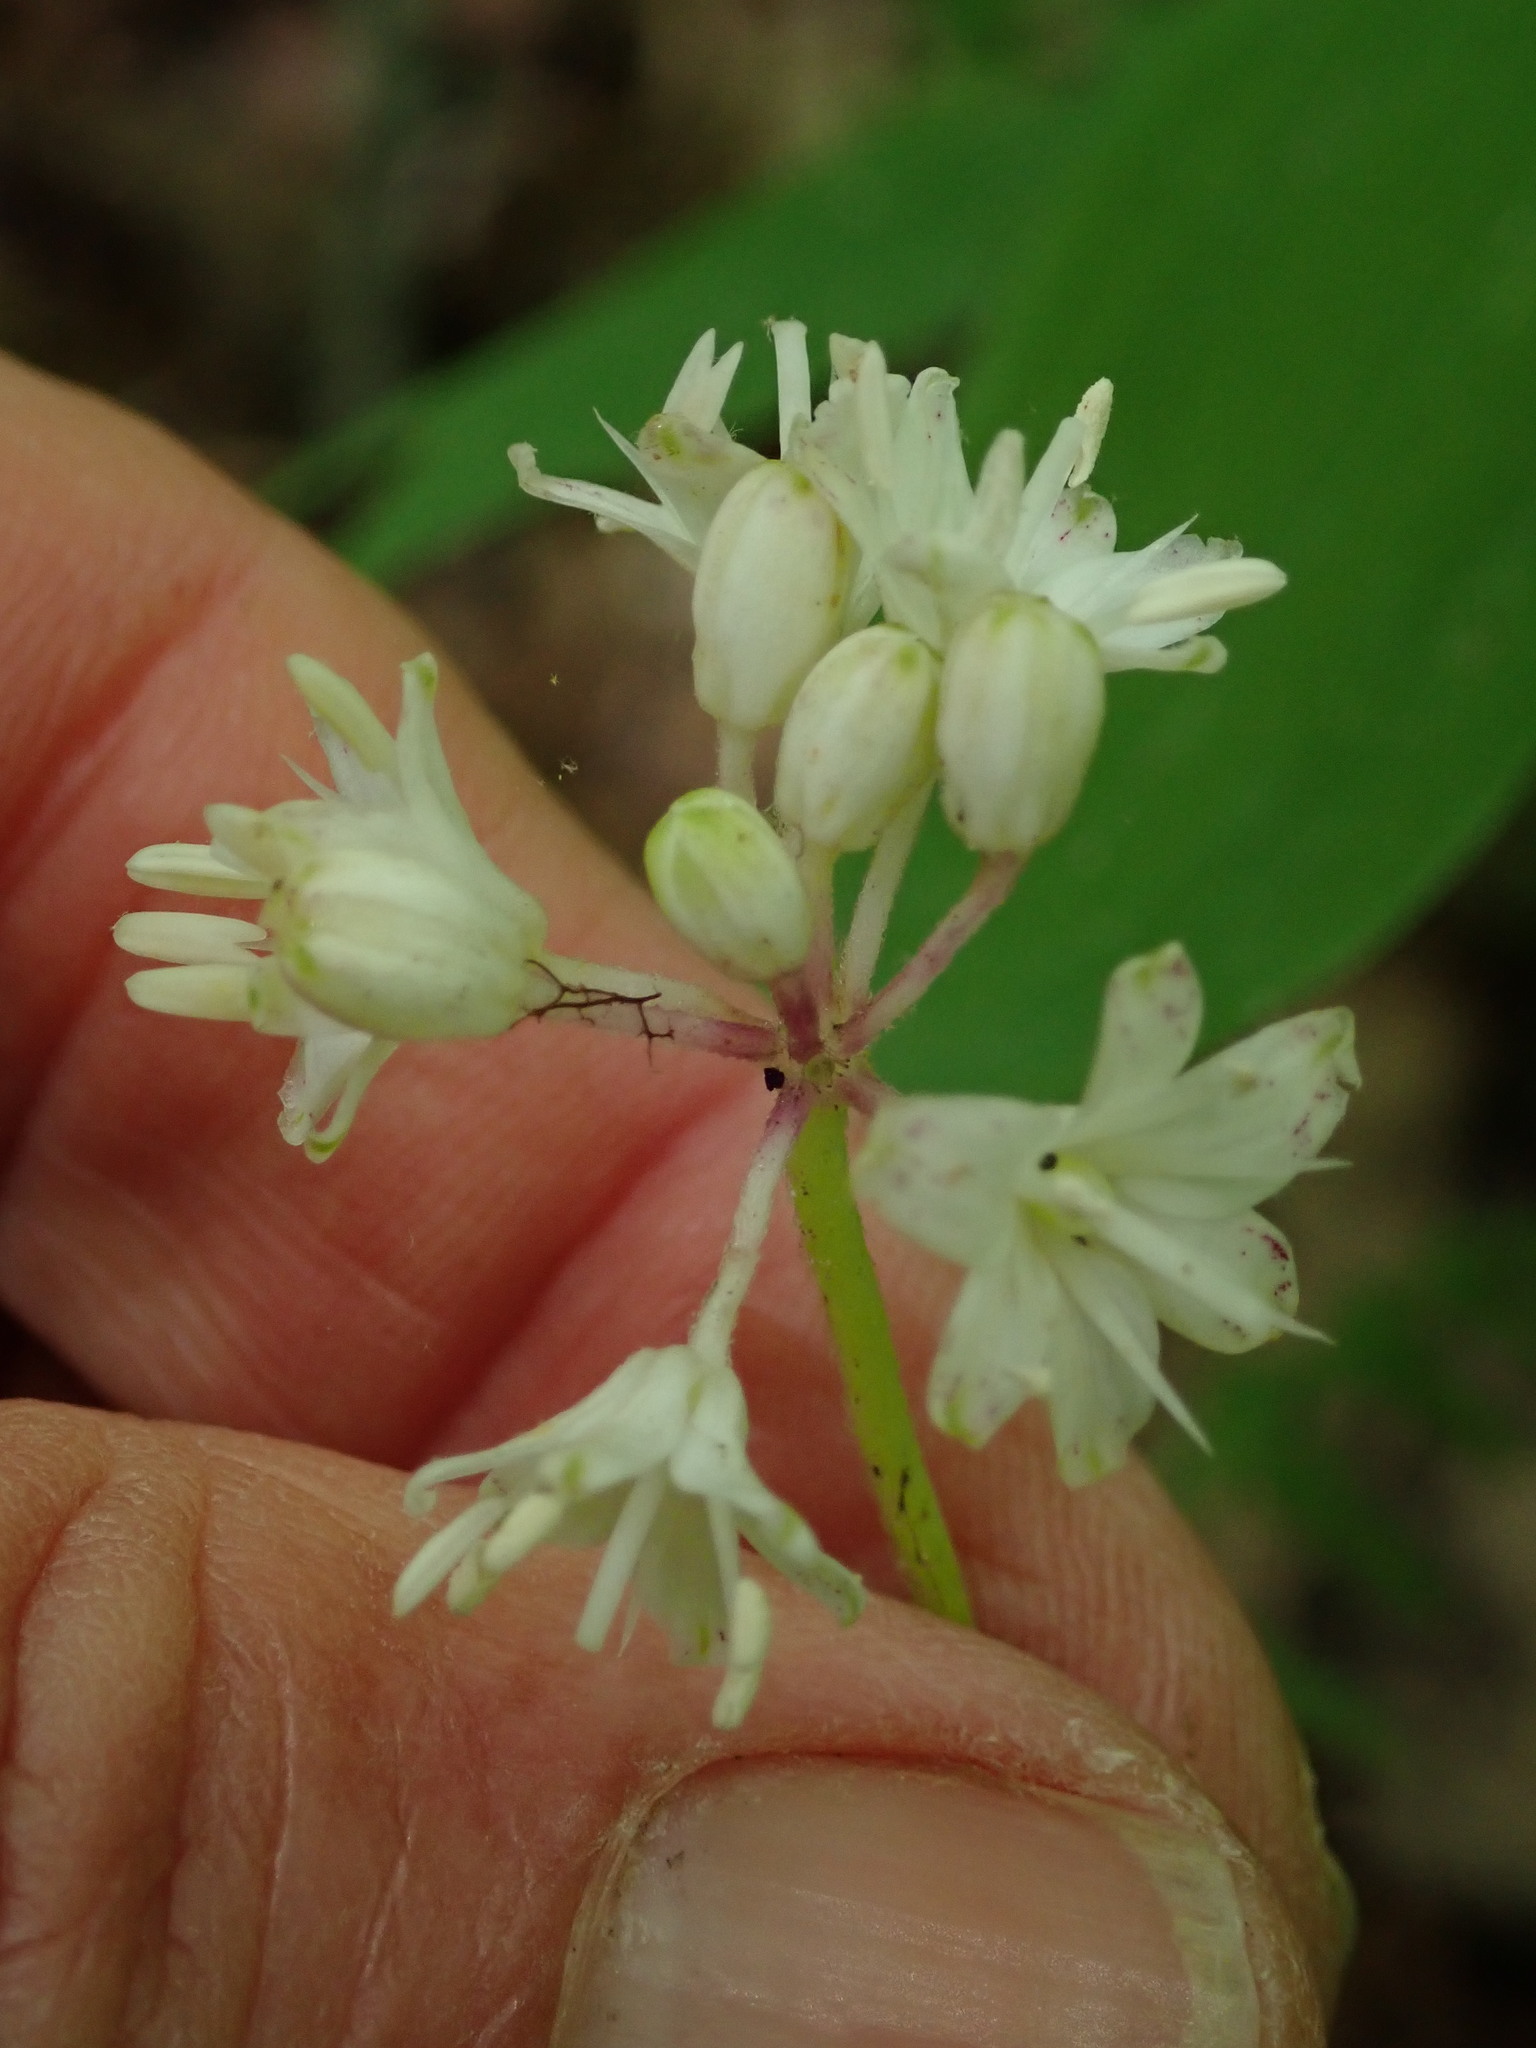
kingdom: Plantae
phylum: Tracheophyta
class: Liliopsida
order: Liliales
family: Liliaceae
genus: Clintonia
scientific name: Clintonia umbellulata
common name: Speckle wood-lily
